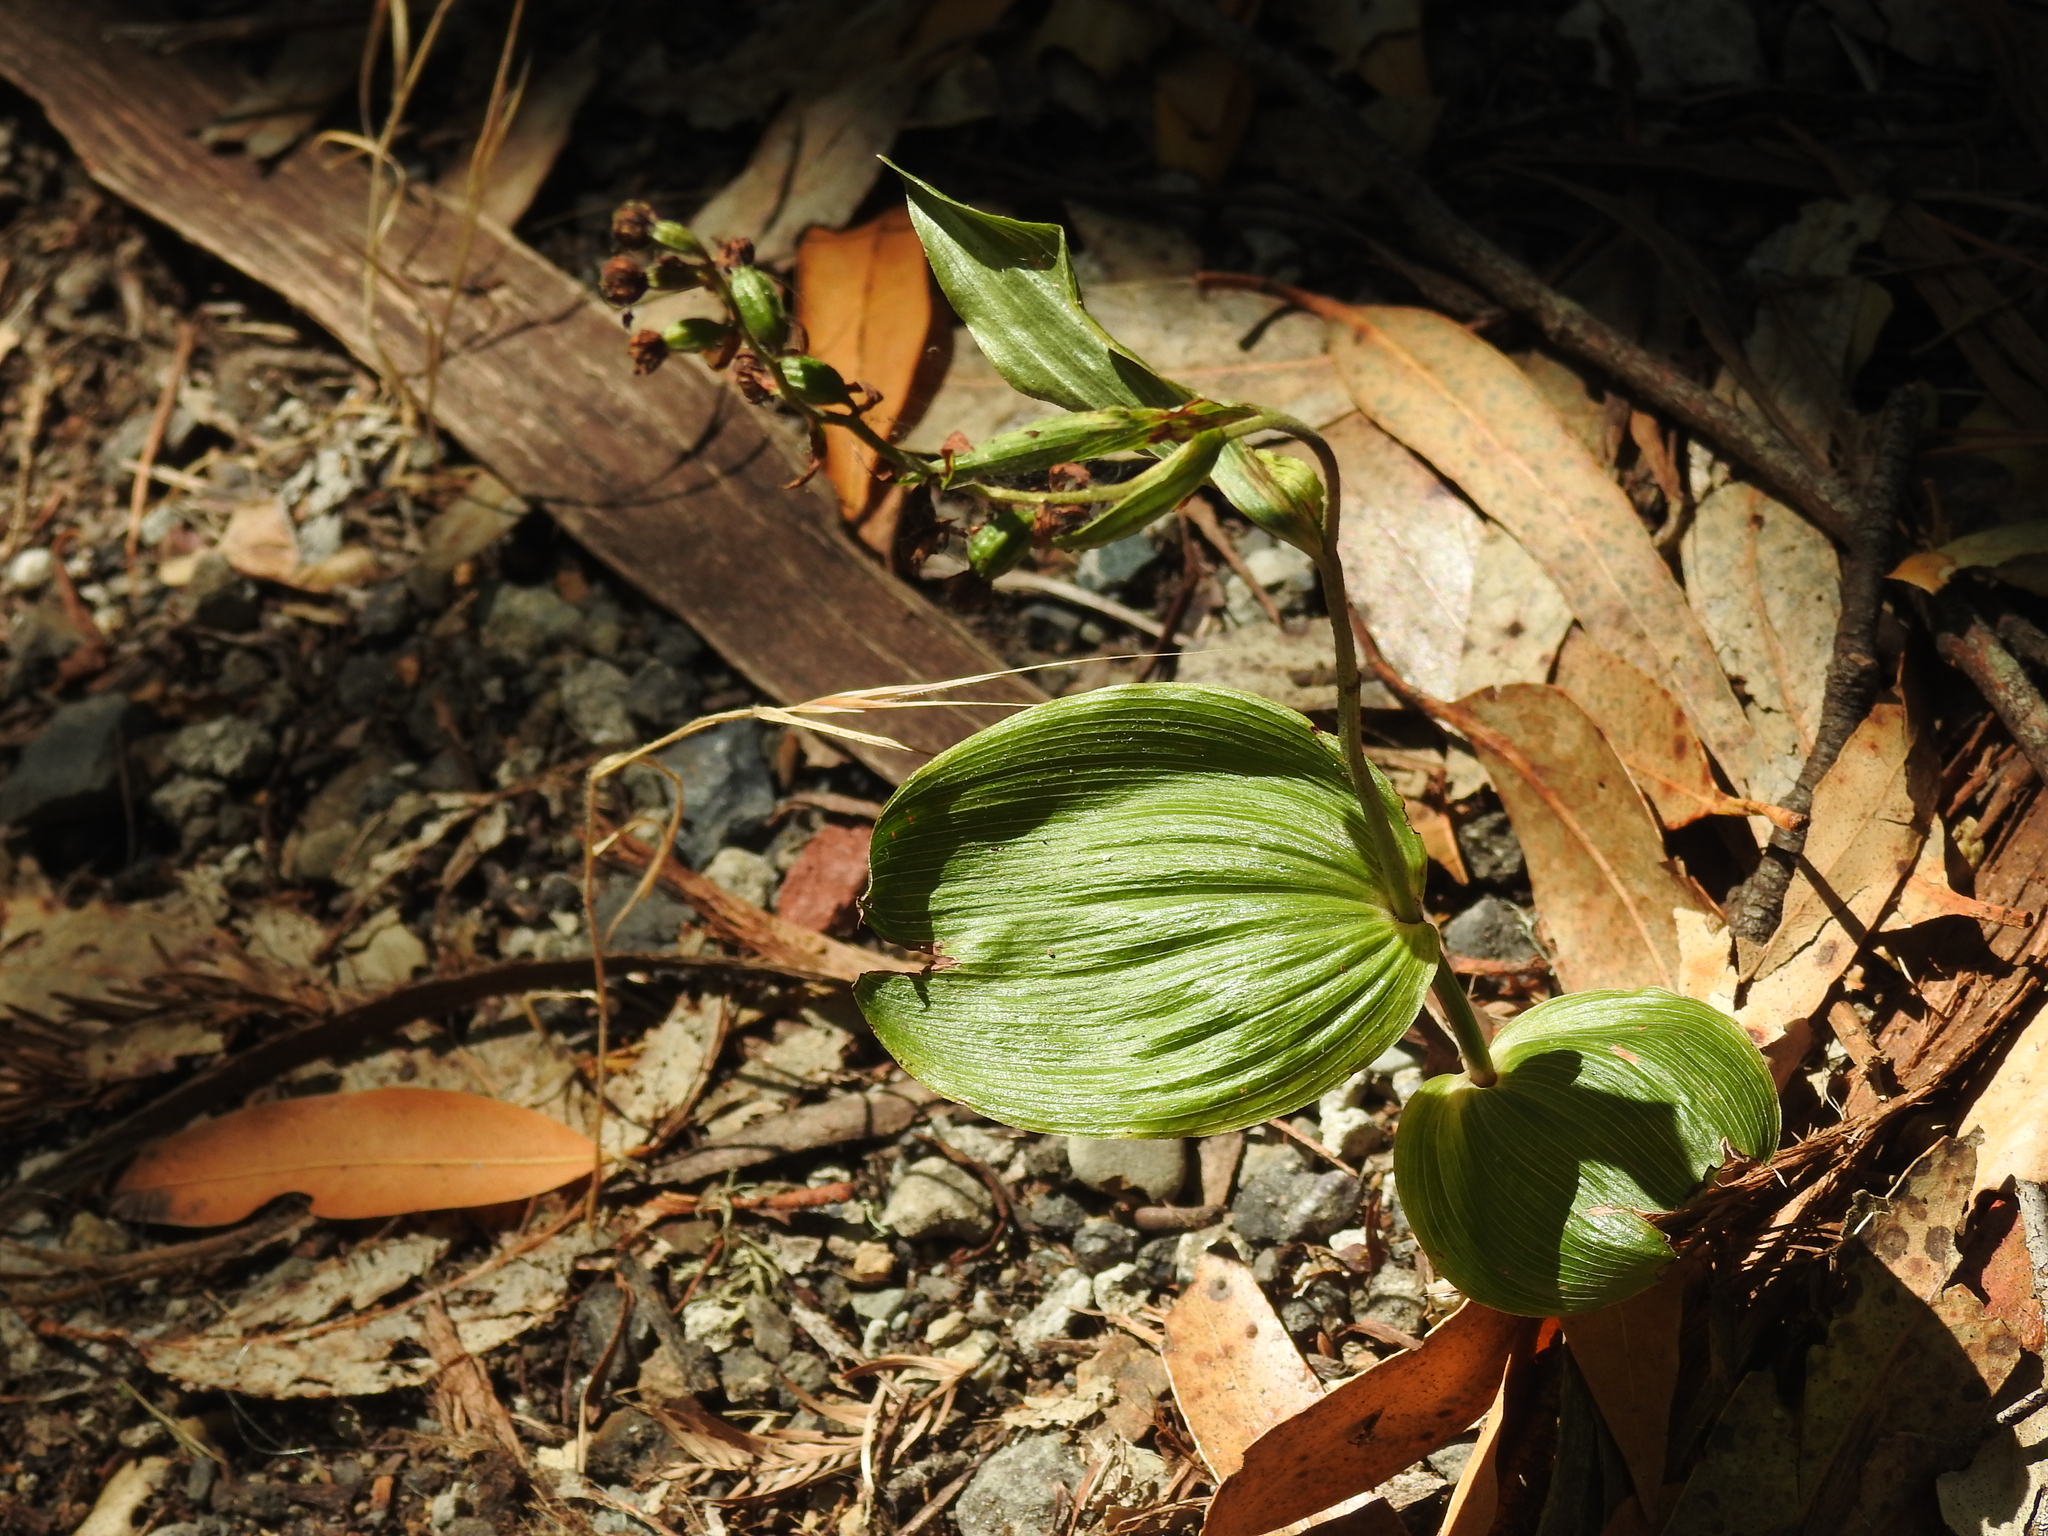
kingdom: Plantae
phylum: Tracheophyta
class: Liliopsida
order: Asparagales
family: Orchidaceae
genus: Epipactis
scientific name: Epipactis helleborine
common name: Broad-leaved helleborine
